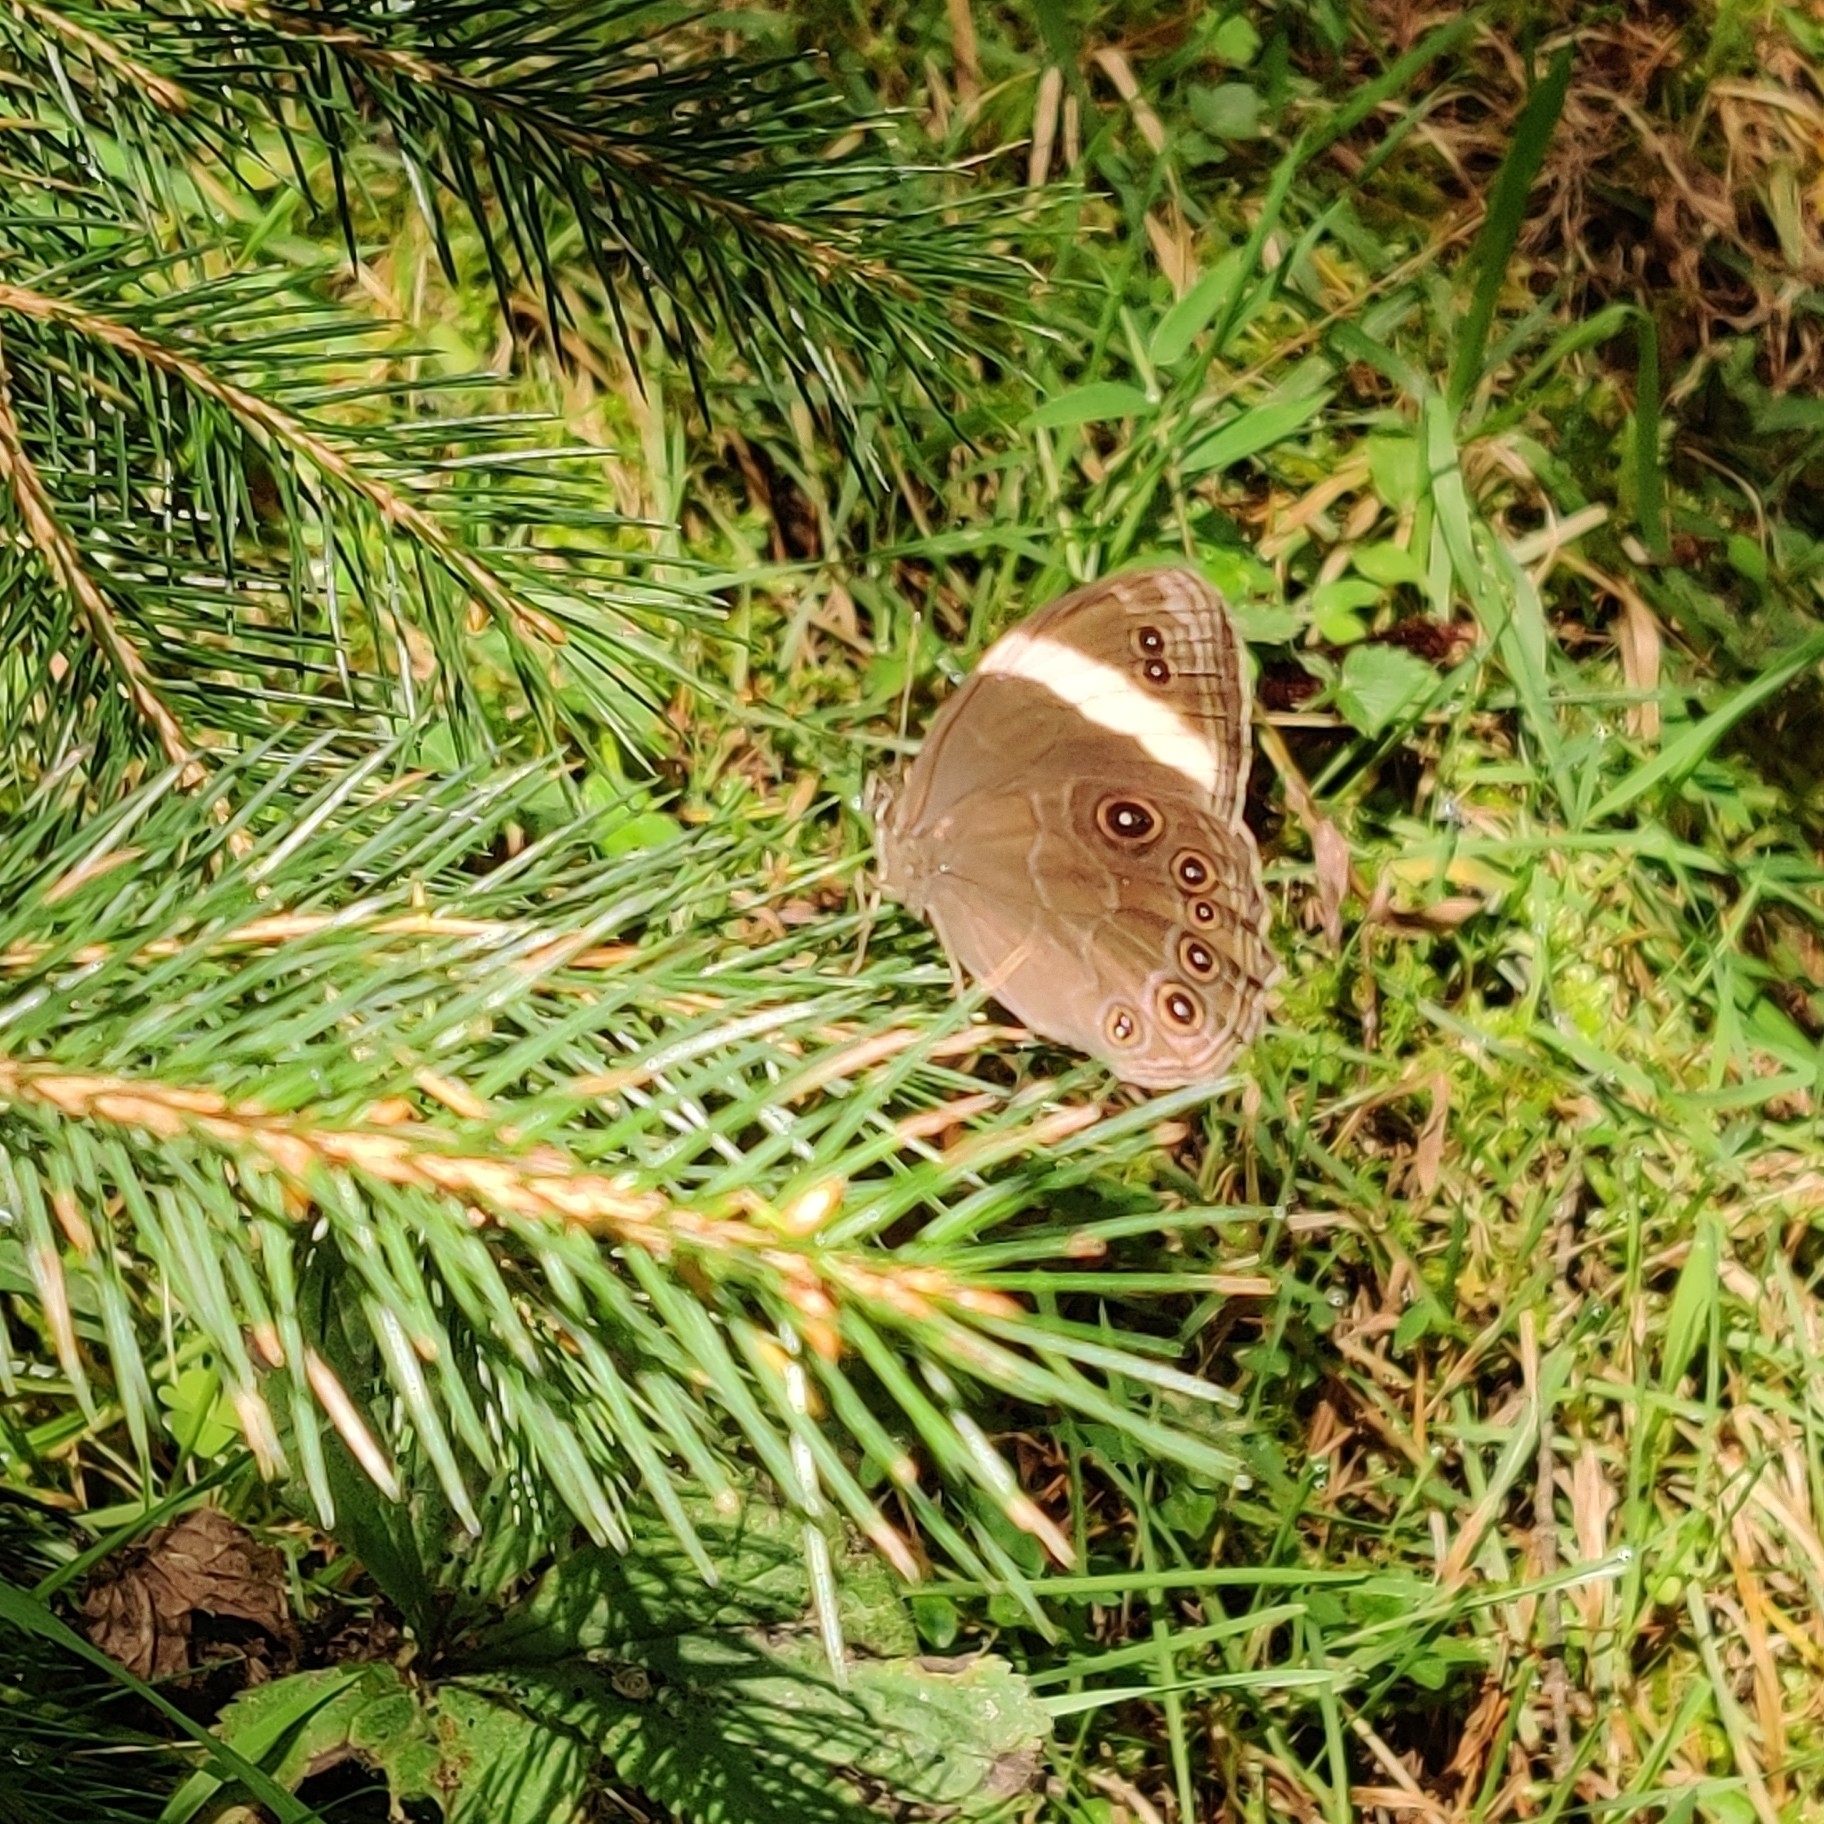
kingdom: Animalia
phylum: Arthropoda
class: Insecta
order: Lepidoptera
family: Nymphalidae
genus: Lethe
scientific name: Lethe verma
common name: Straight-banded treebrown
